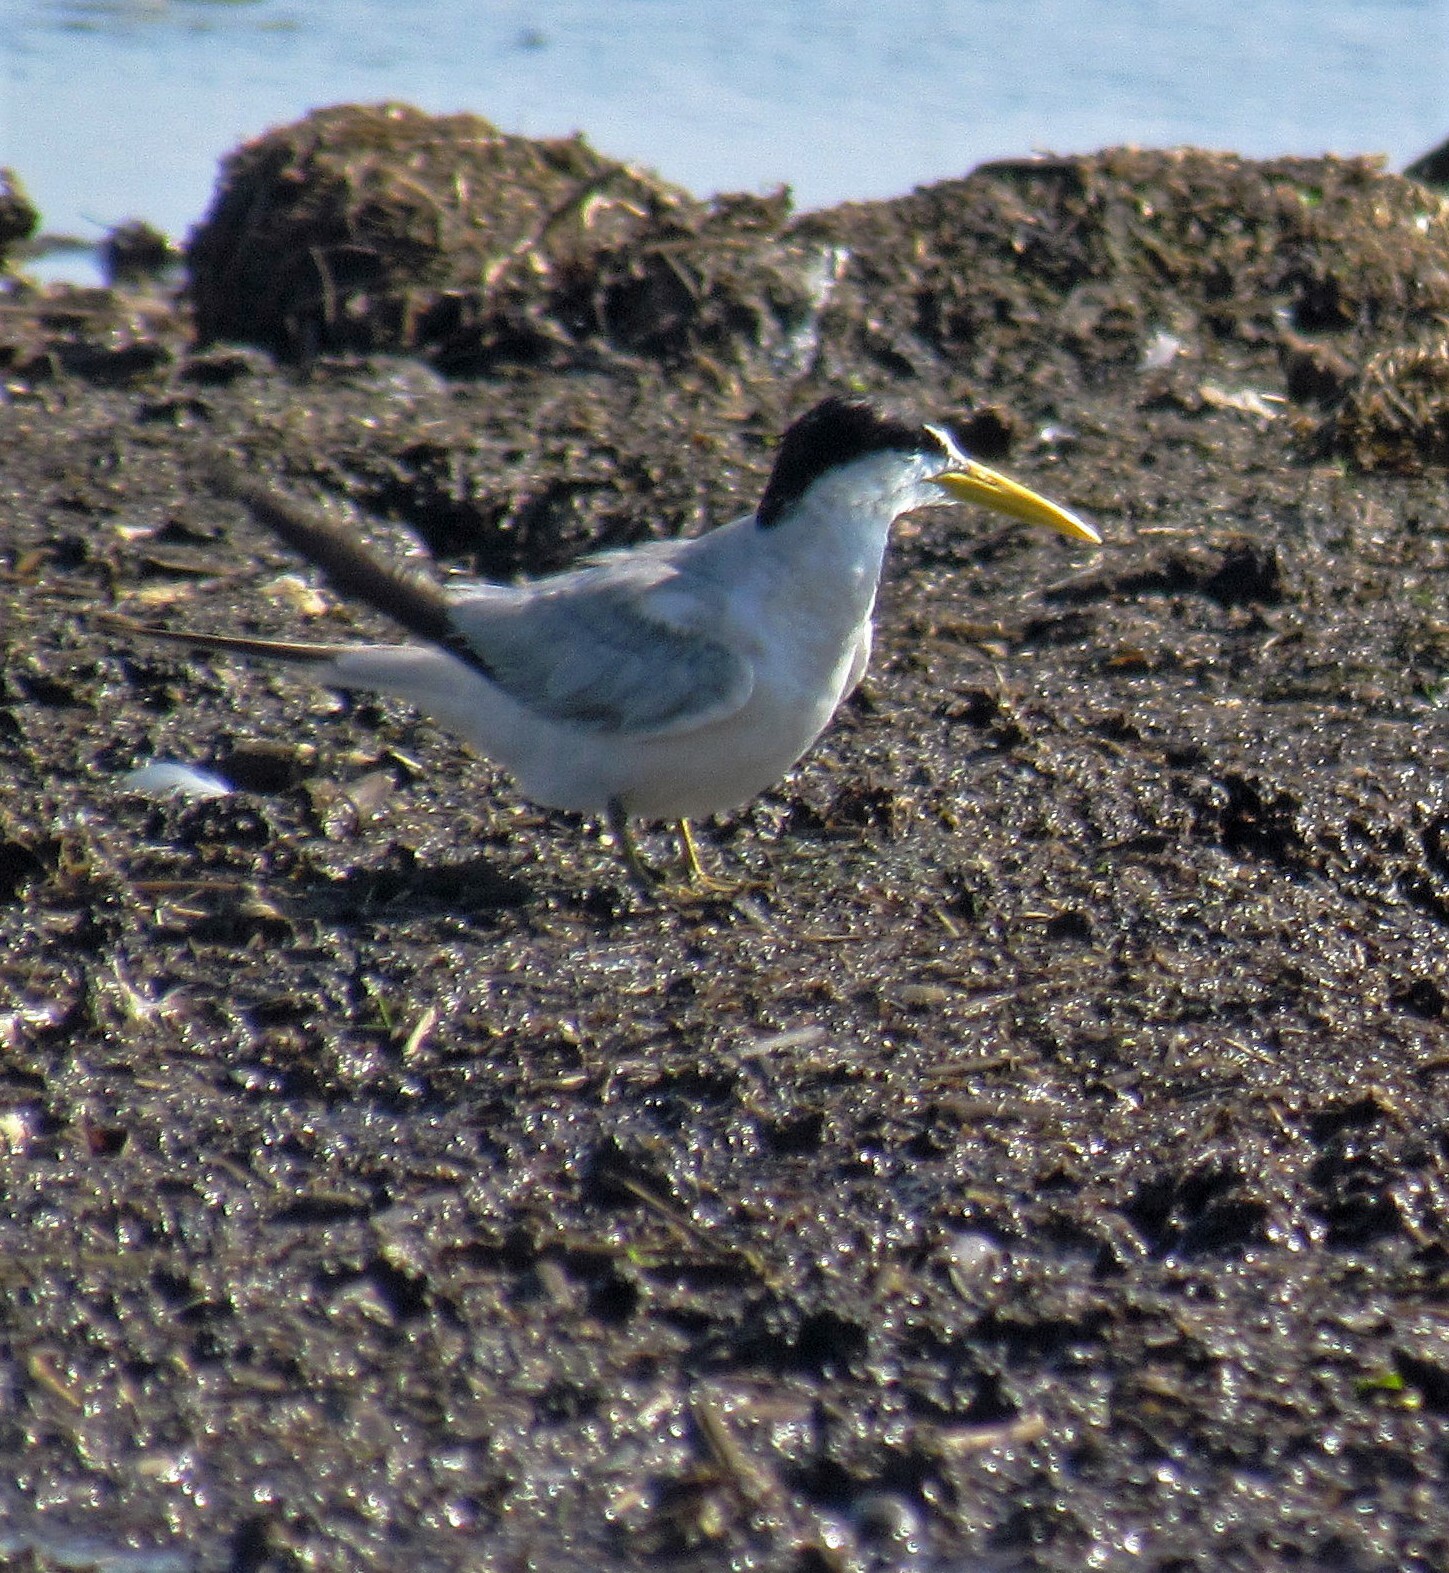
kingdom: Animalia
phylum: Chordata
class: Aves
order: Charadriiformes
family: Laridae
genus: Phaetusa
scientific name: Phaetusa simplex
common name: Large-billed tern
